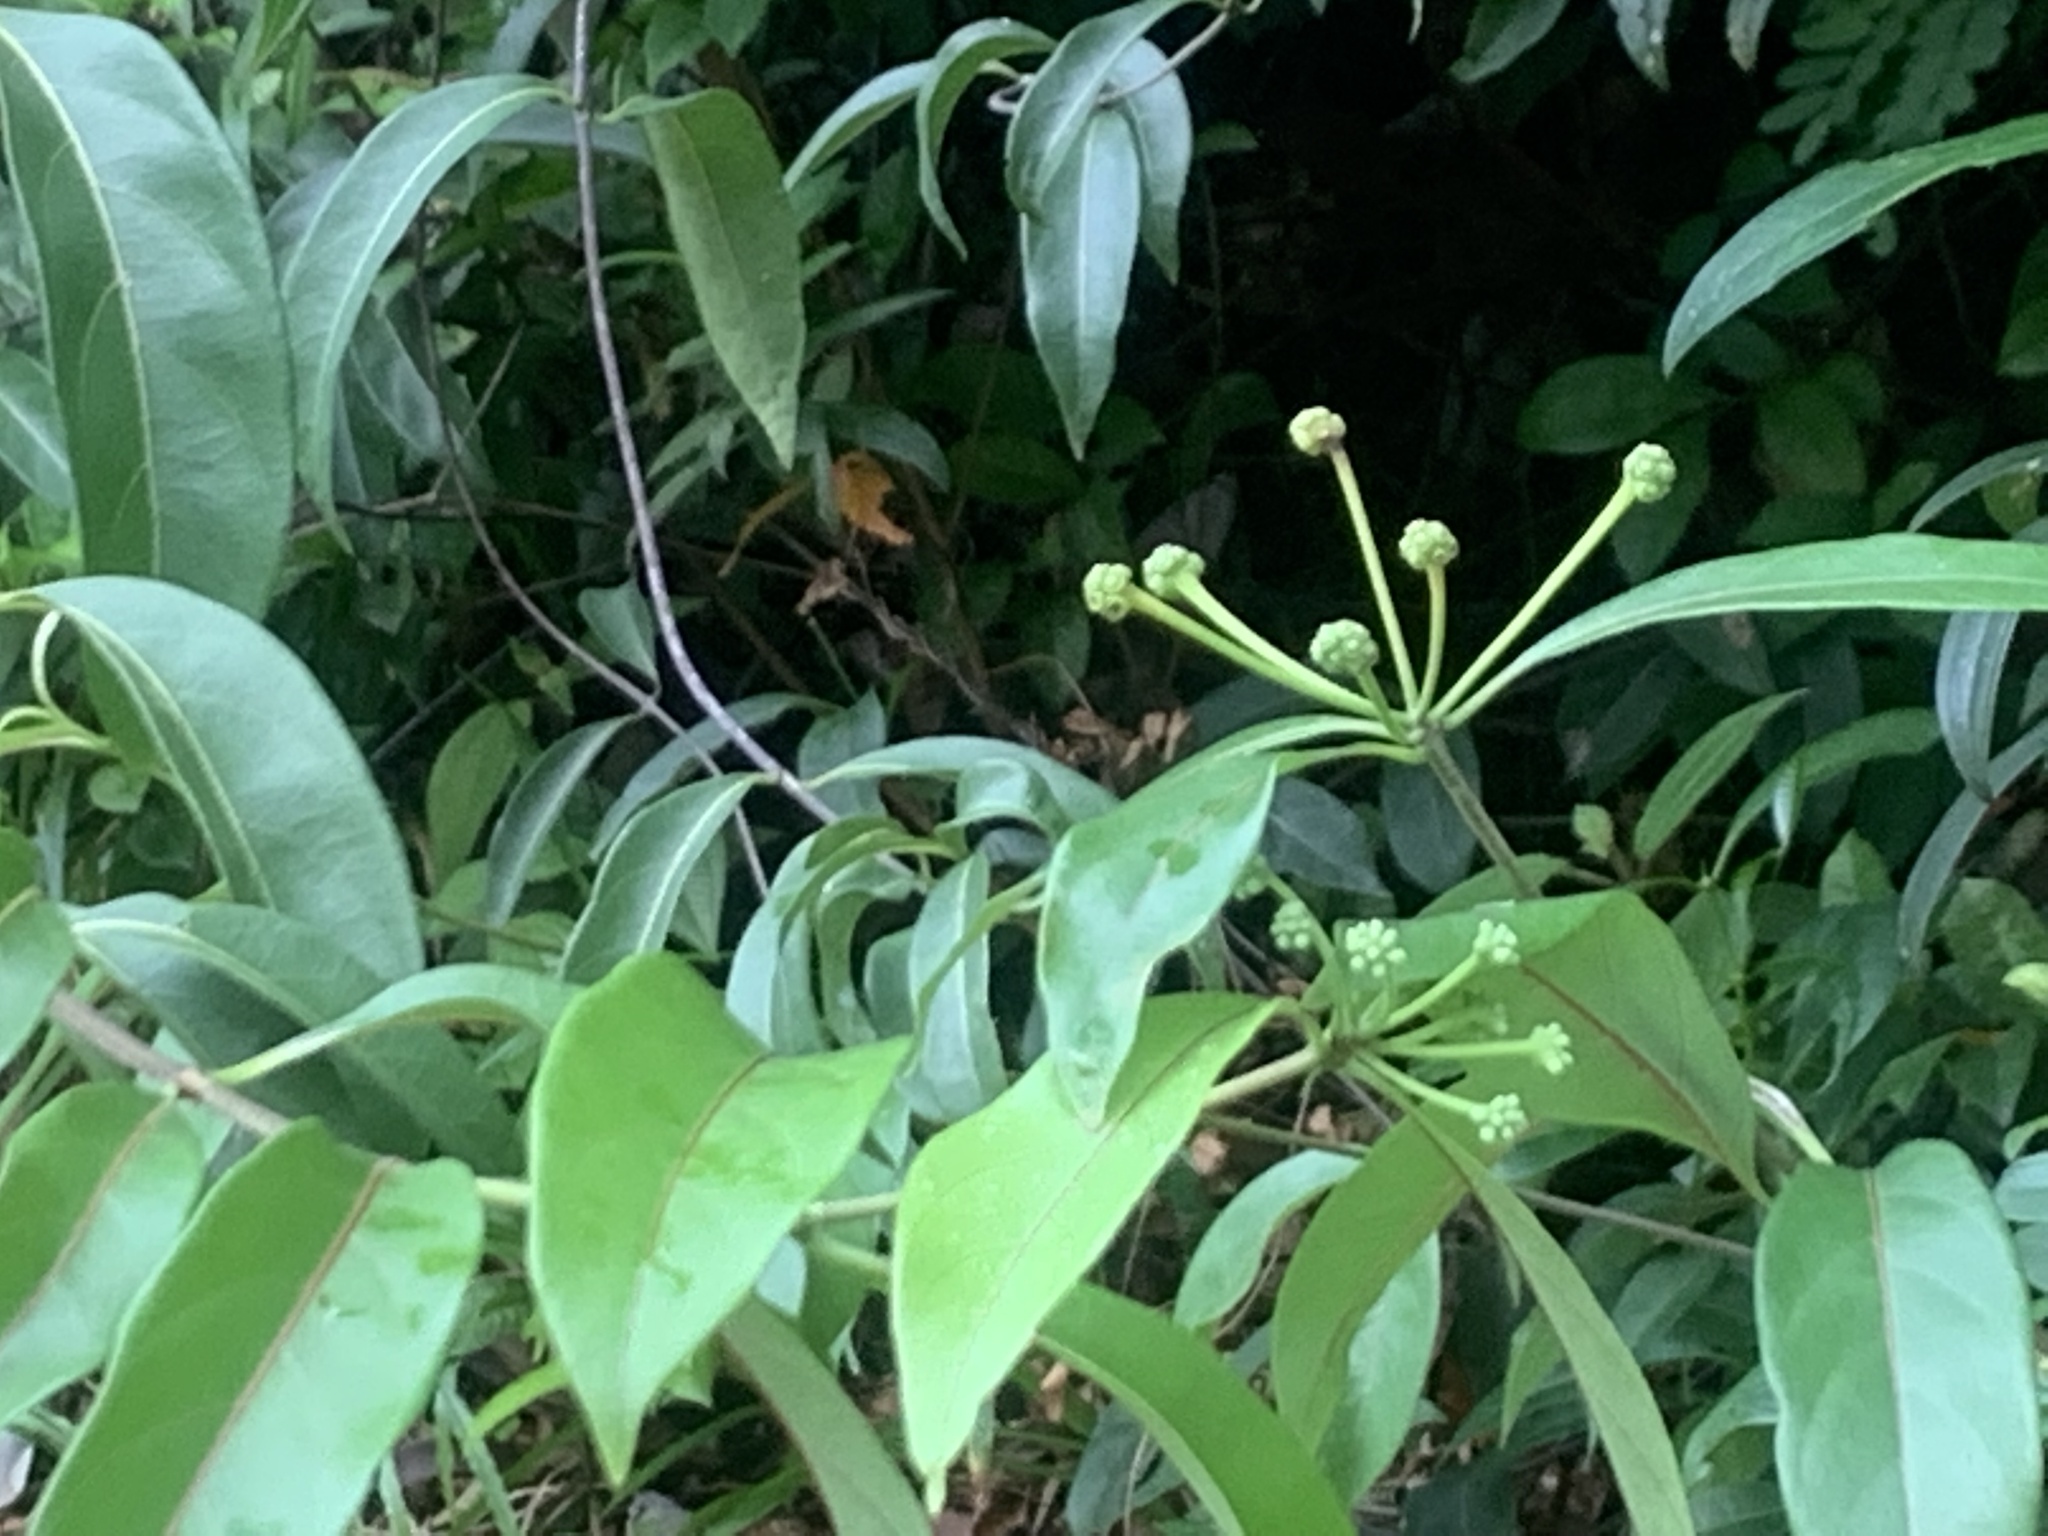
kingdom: Plantae
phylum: Tracheophyta
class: Magnoliopsida
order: Gentianales
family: Rubiaceae
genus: Gynochthodes
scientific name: Gynochthodes umbellata
